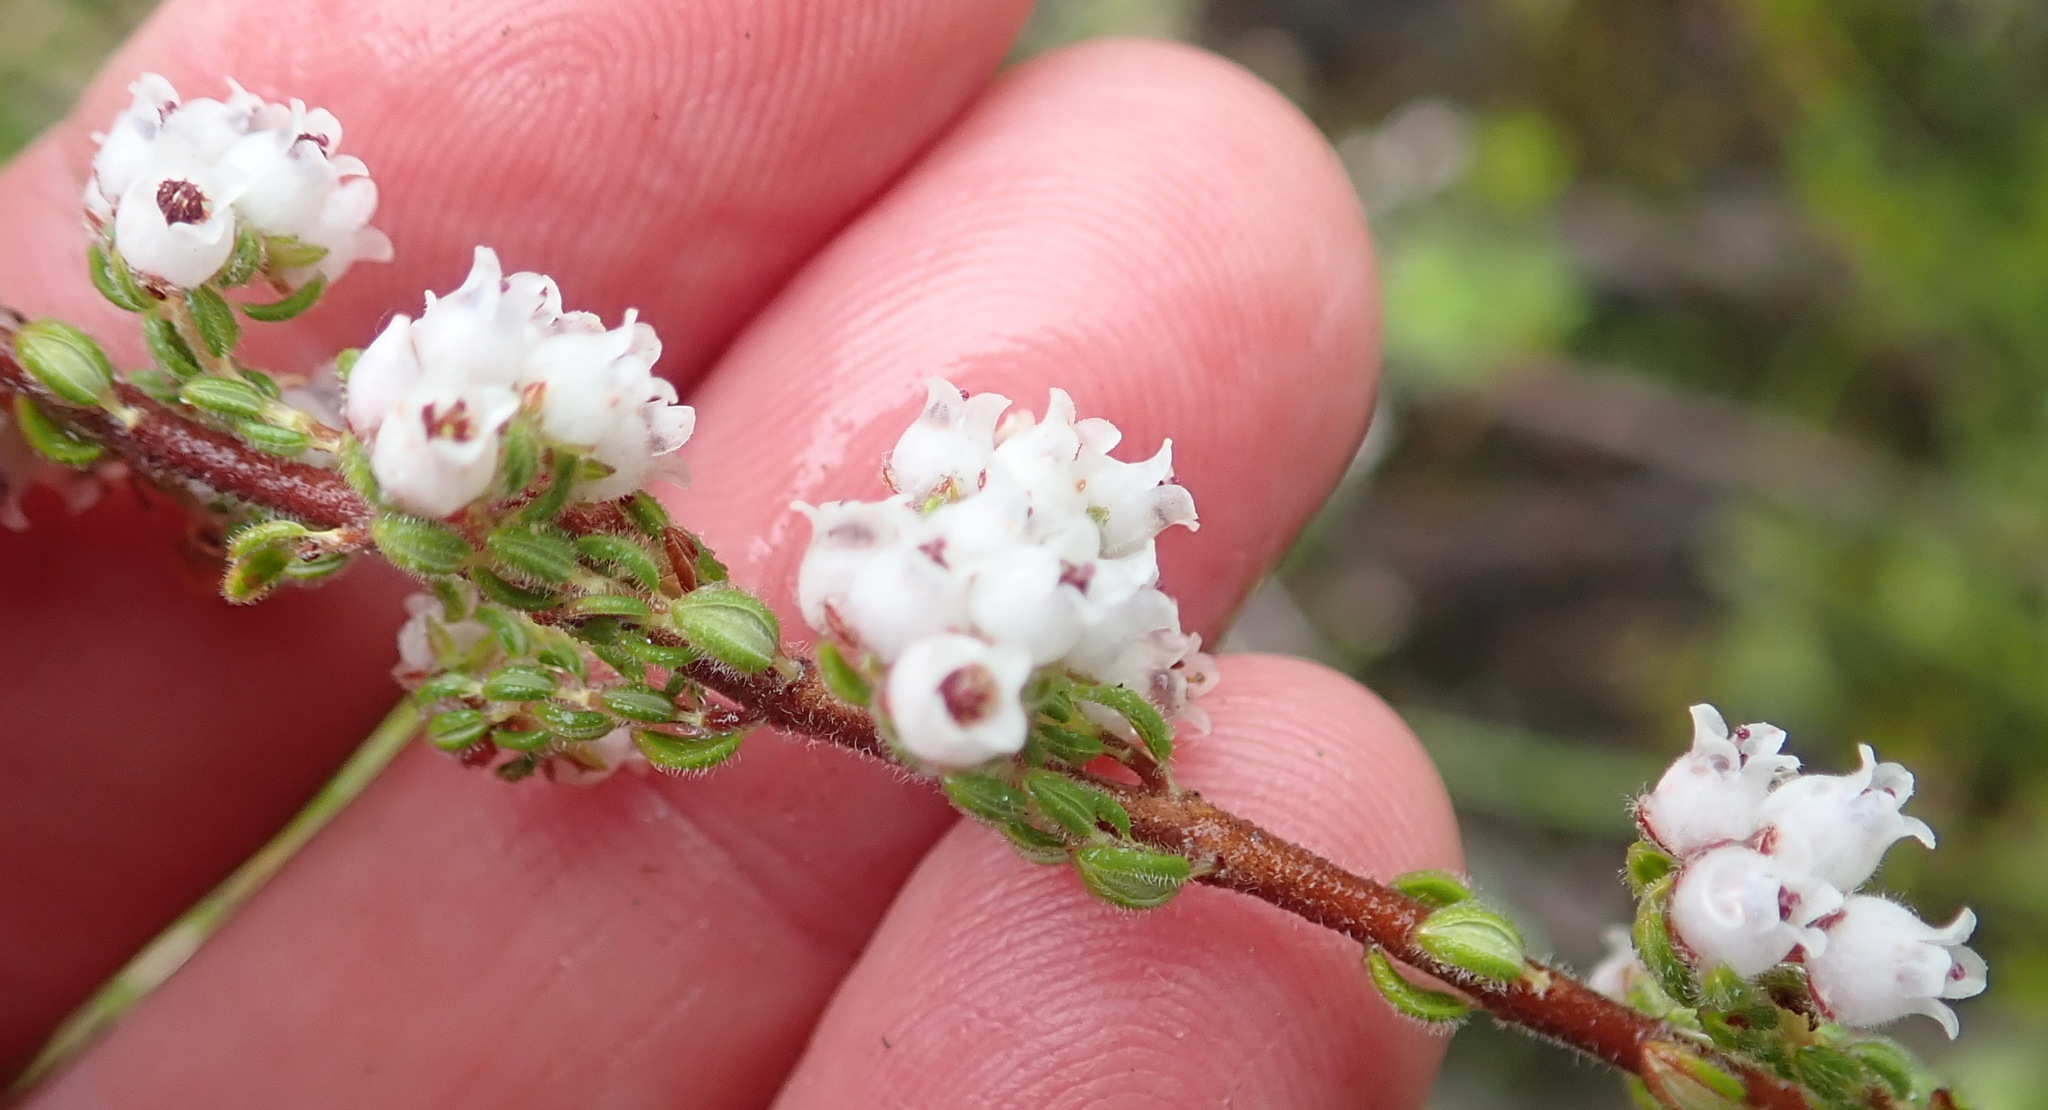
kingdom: Plantae
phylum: Tracheophyta
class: Magnoliopsida
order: Ericales
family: Ericaceae
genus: Erica
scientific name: Erica oreotragus
